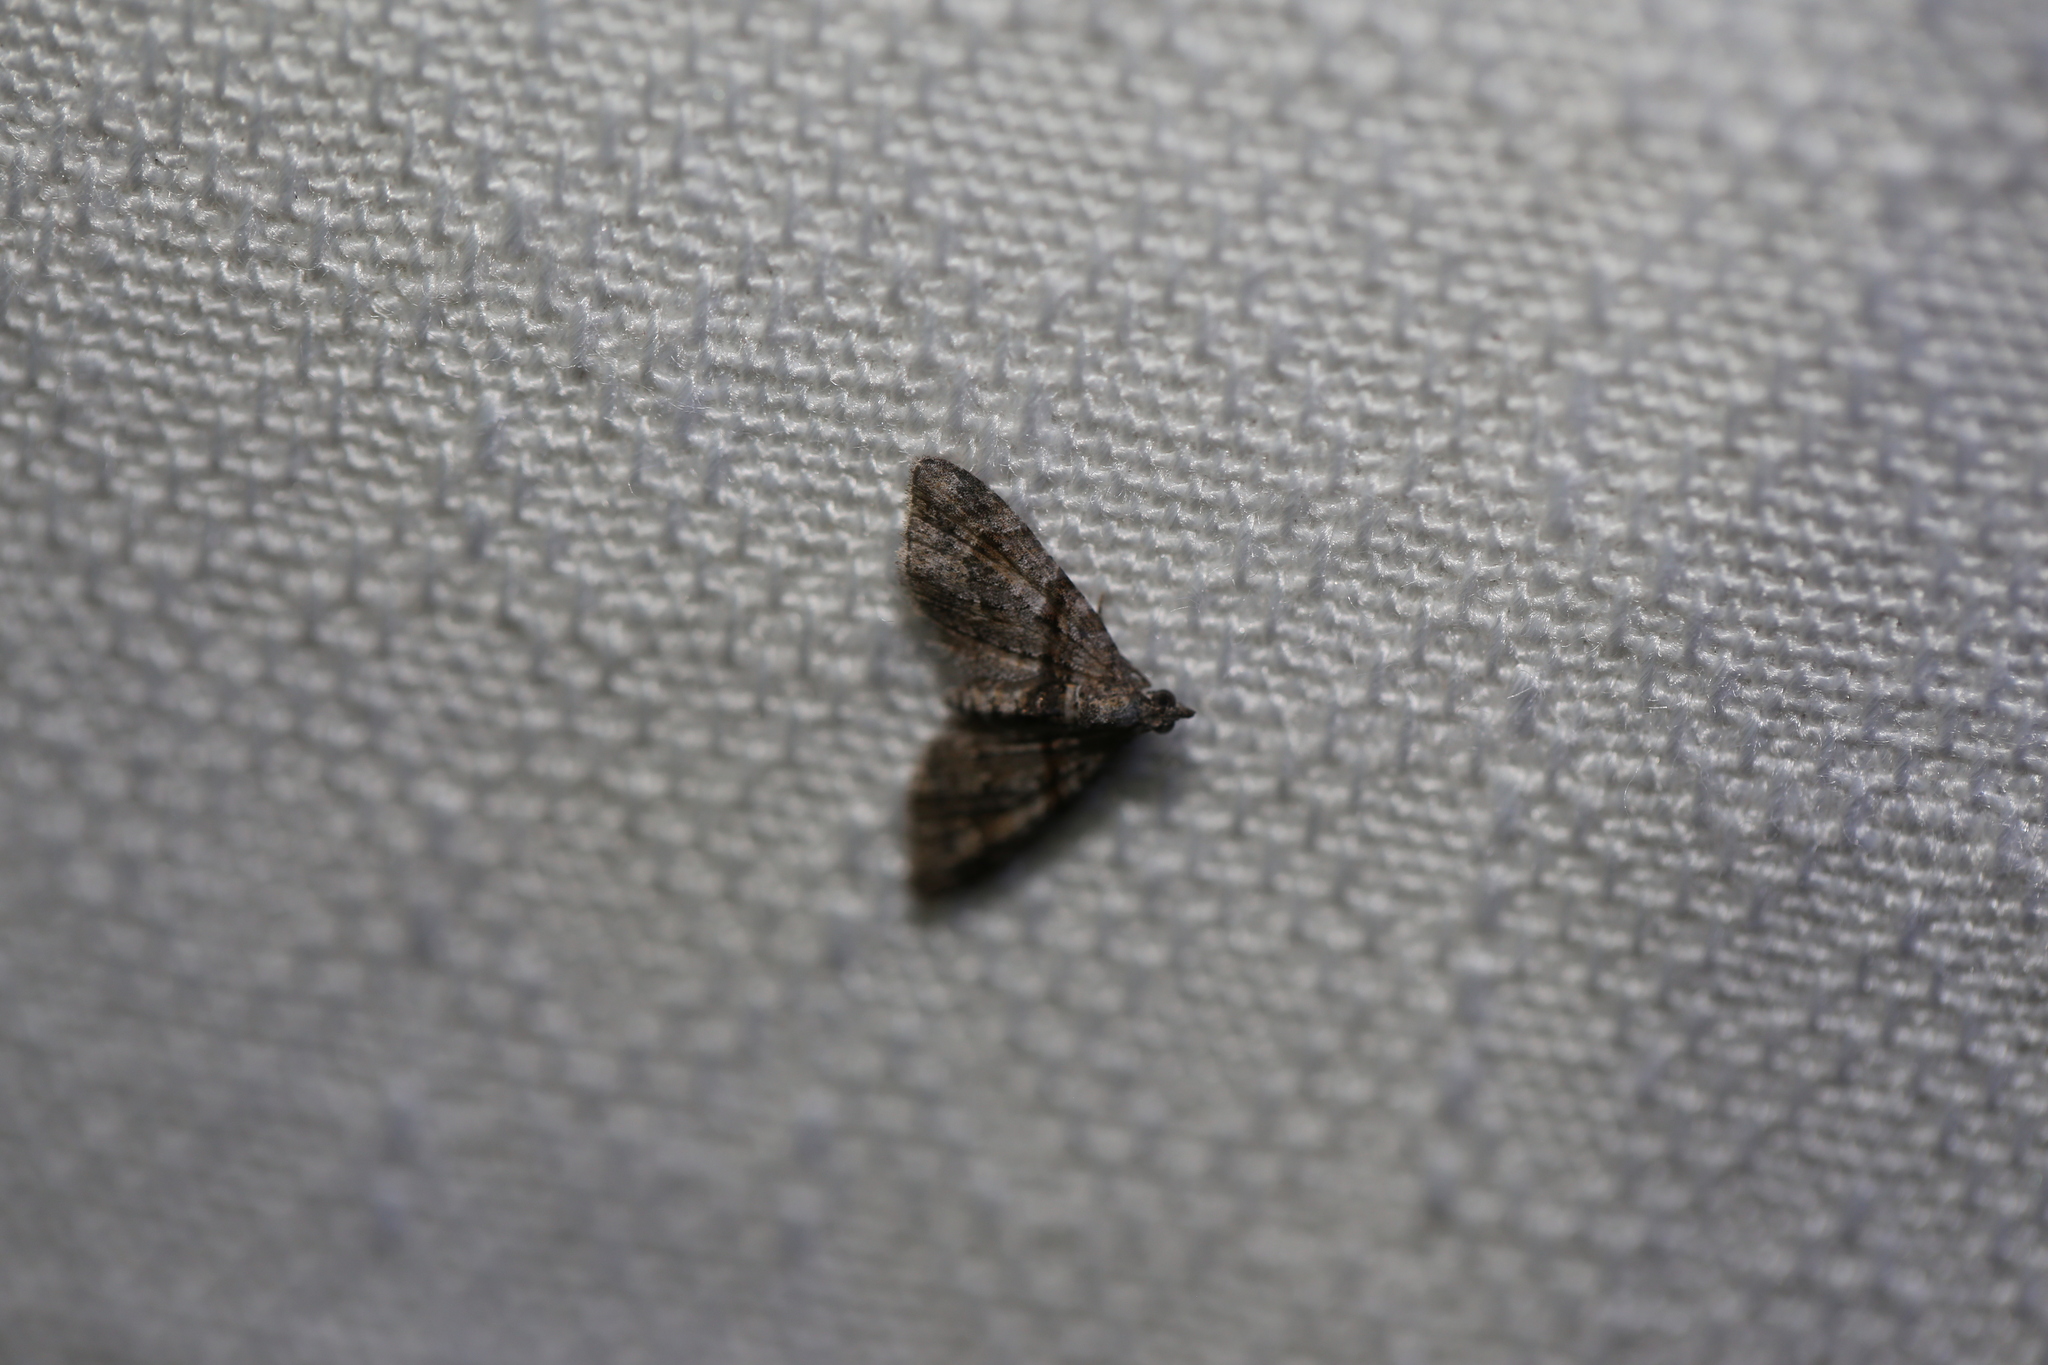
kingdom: Animalia
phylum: Arthropoda
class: Insecta
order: Lepidoptera
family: Geometridae
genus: Phrissogonus
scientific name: Phrissogonus laticostata
